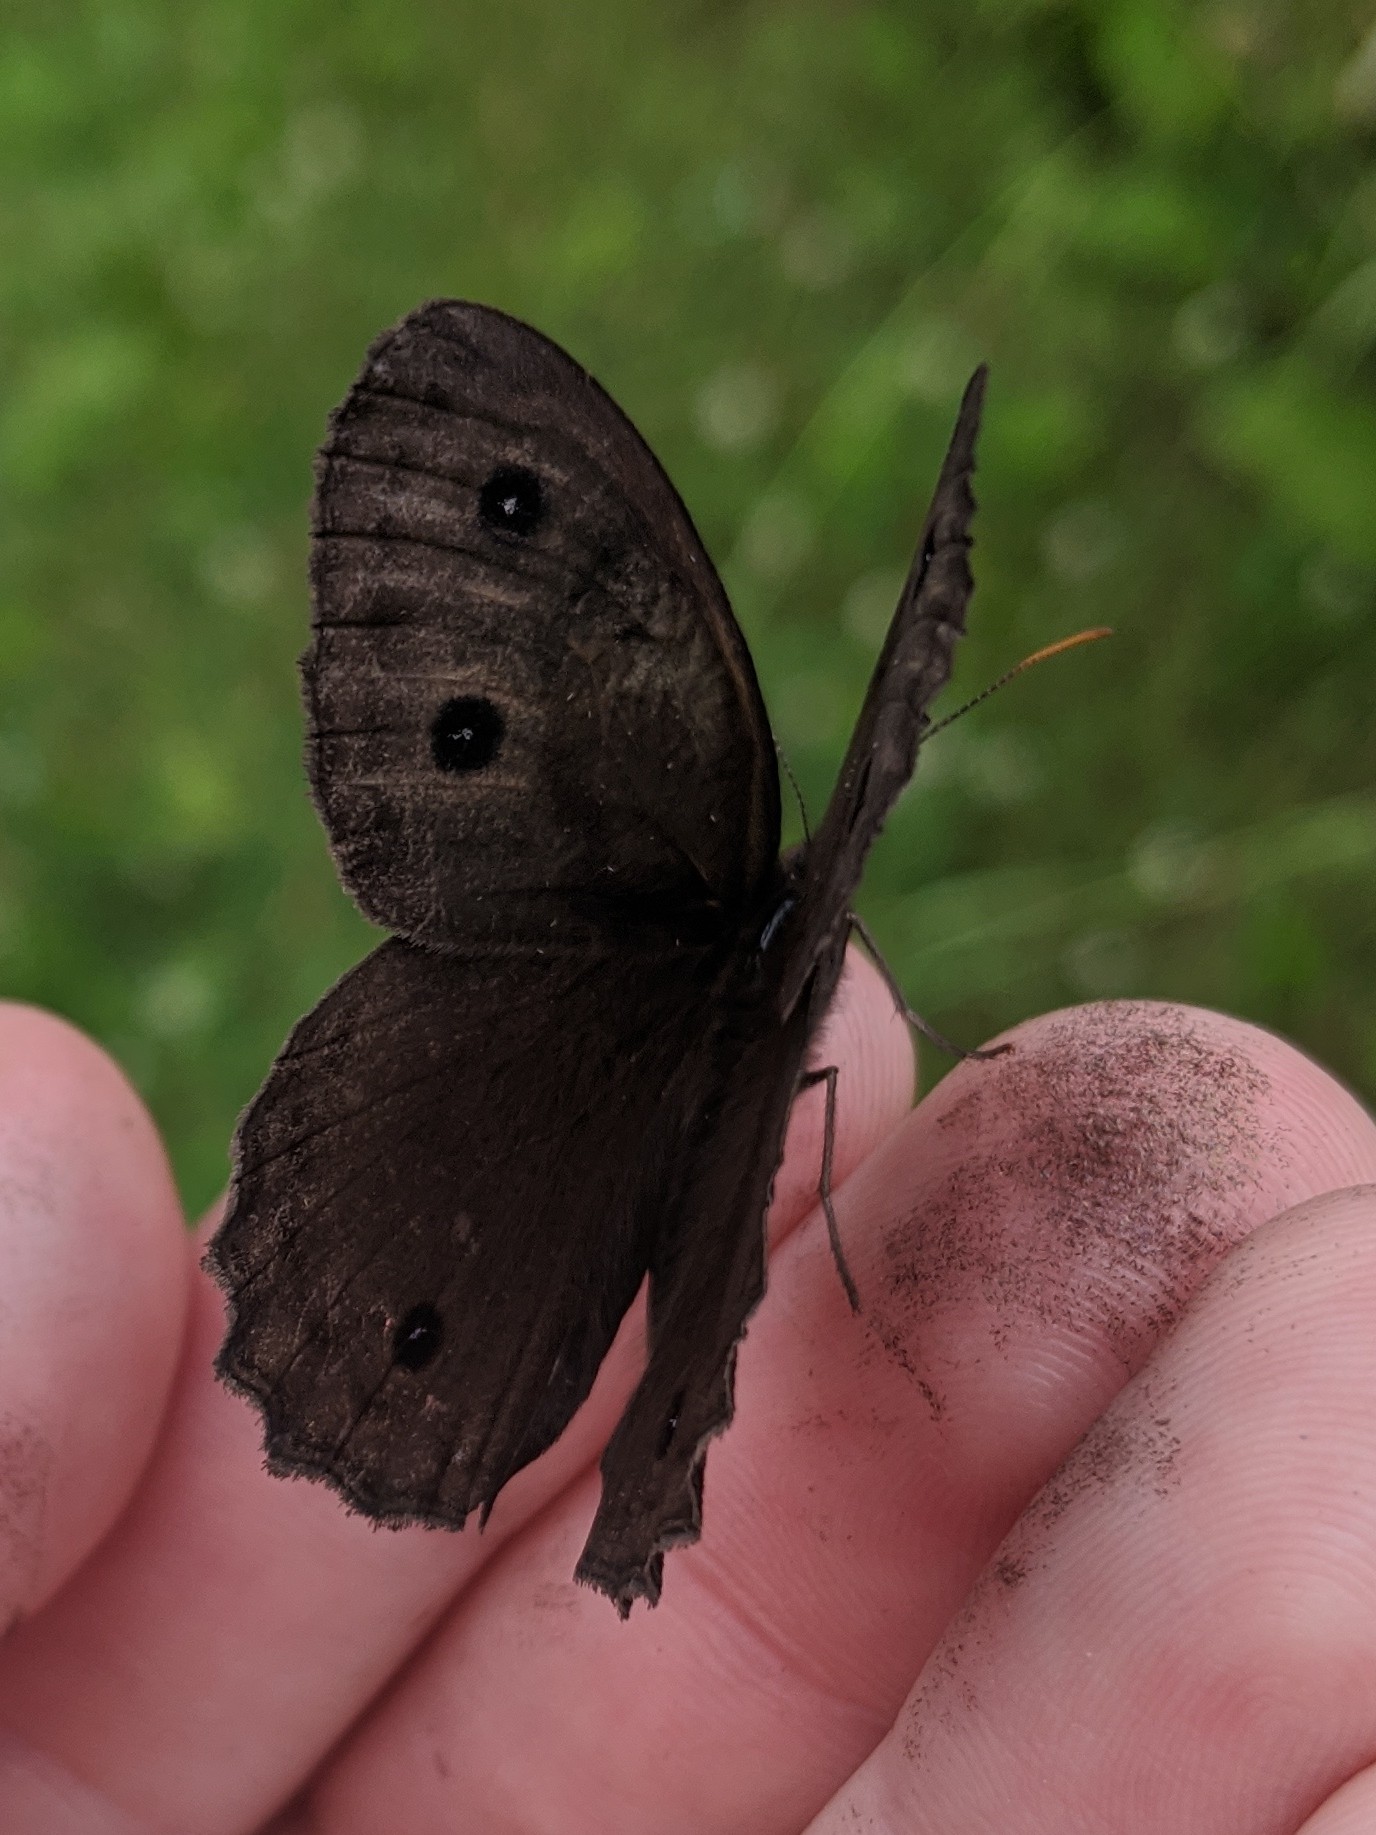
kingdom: Animalia
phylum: Arthropoda
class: Insecta
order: Lepidoptera
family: Nymphalidae
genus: Cercyonis
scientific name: Cercyonis pegala
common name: Common wood-nymph
